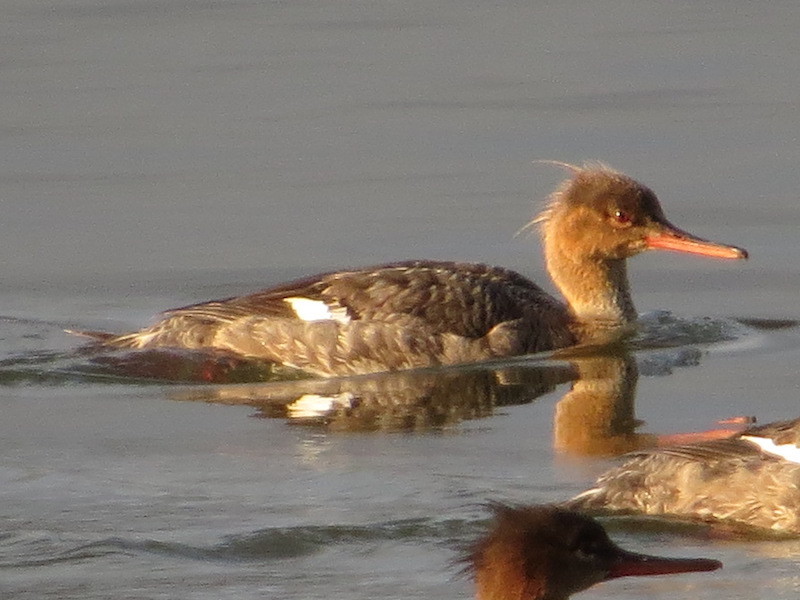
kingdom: Animalia
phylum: Chordata
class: Aves
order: Anseriformes
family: Anatidae
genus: Mergus
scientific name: Mergus serrator
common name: Red-breasted merganser
